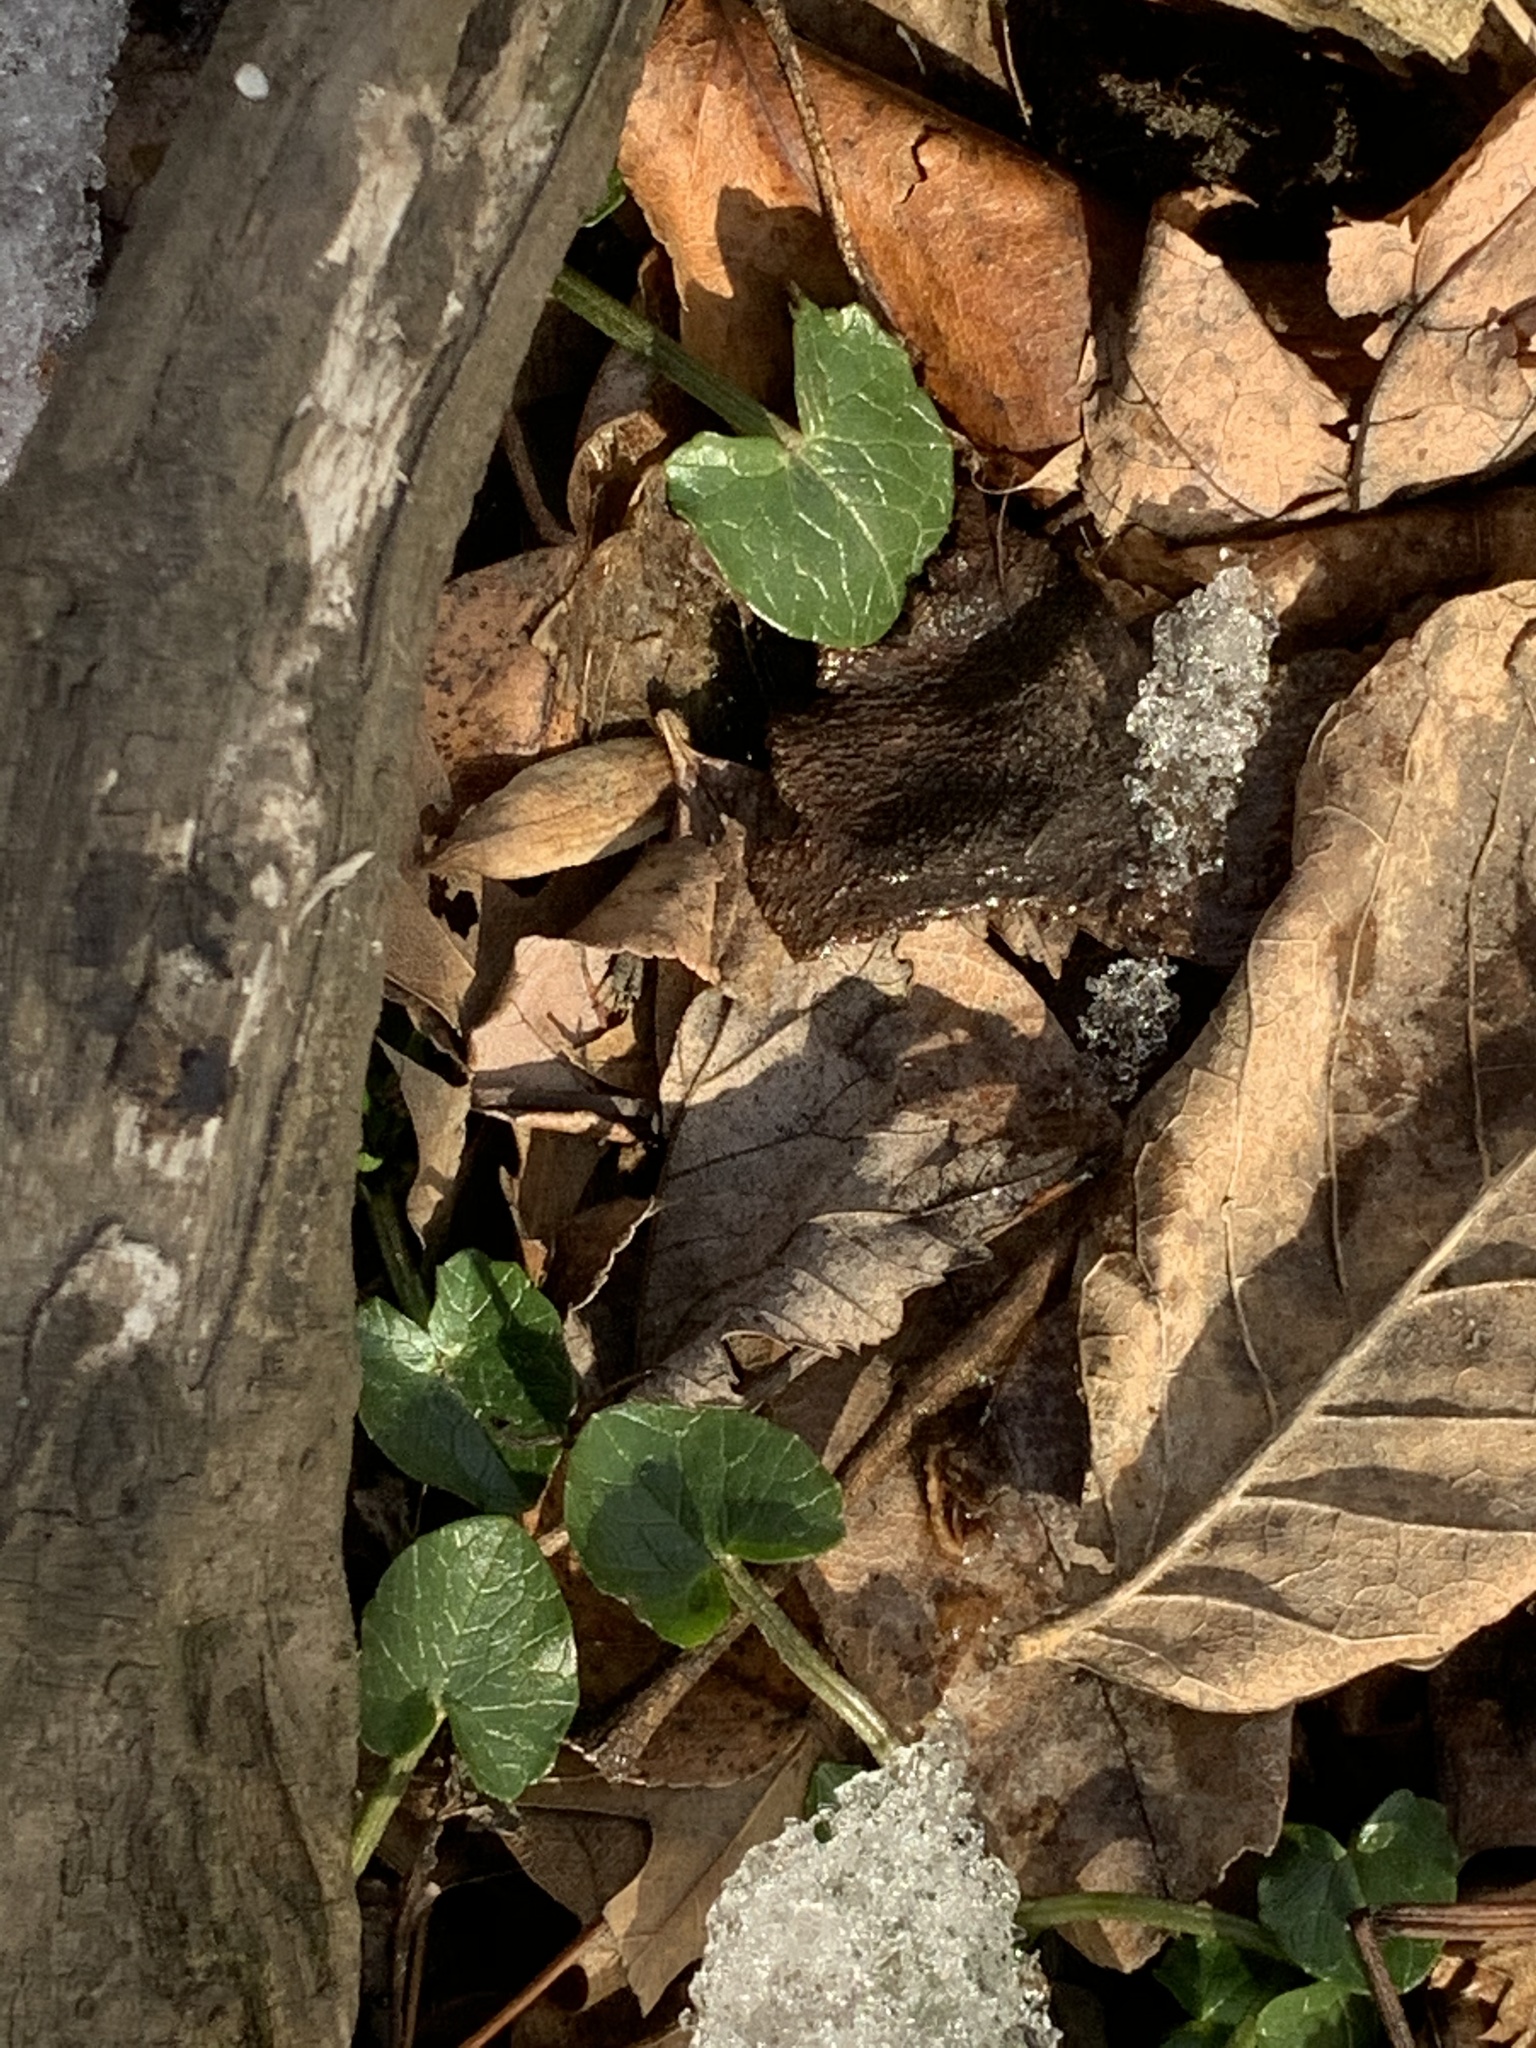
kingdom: Plantae
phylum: Tracheophyta
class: Magnoliopsida
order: Ranunculales
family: Ranunculaceae
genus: Ficaria
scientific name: Ficaria verna
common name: Lesser celandine
